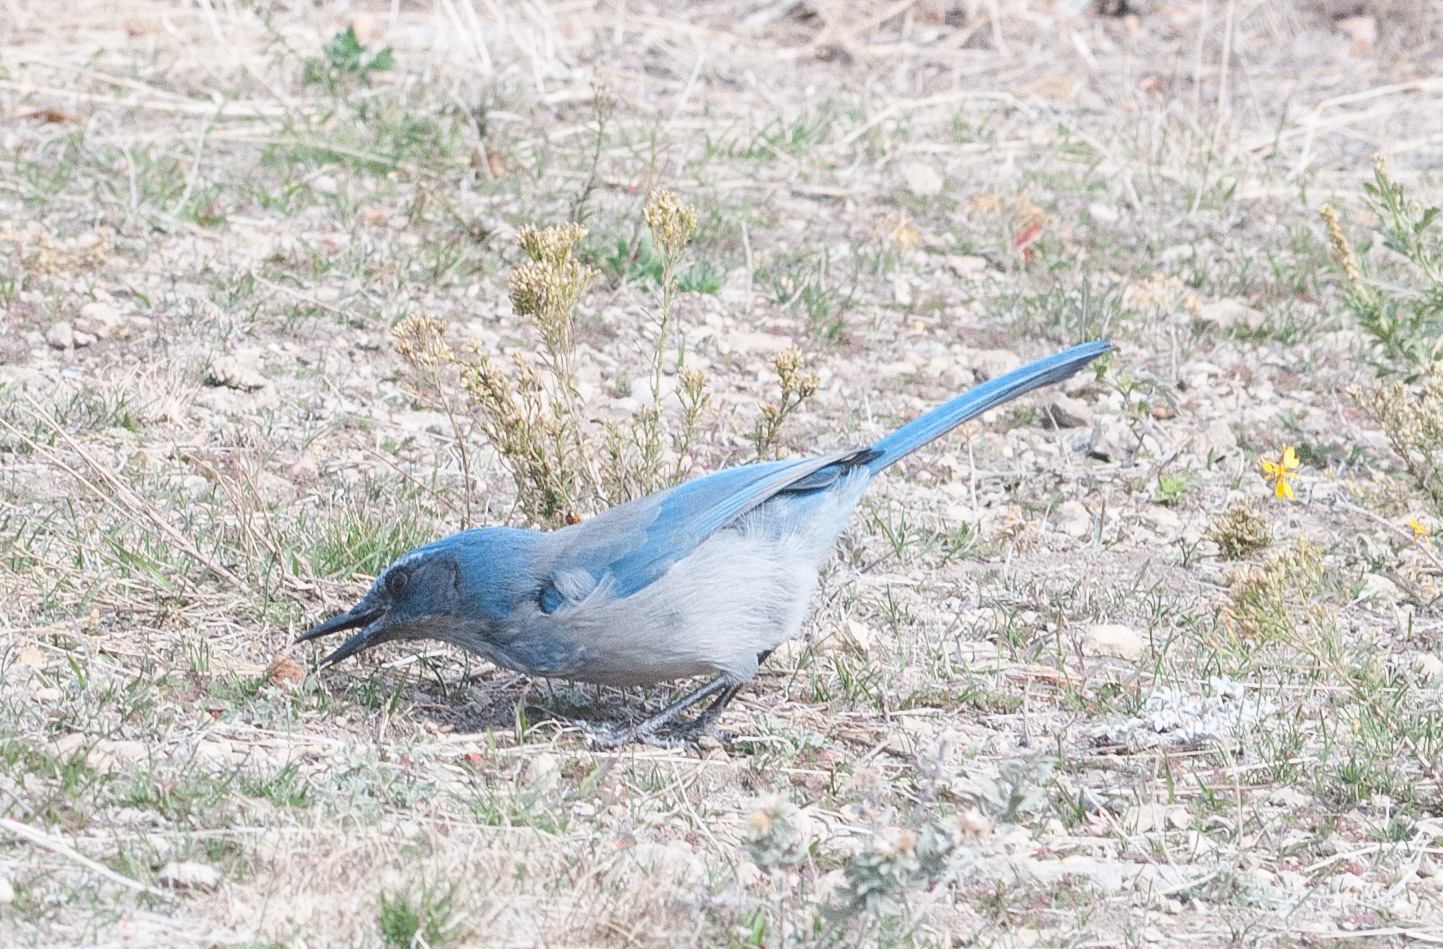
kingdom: Animalia
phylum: Chordata
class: Aves
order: Passeriformes
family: Corvidae
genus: Aphelocoma
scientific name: Aphelocoma woodhouseii
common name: Woodhouse's scrub-jay
